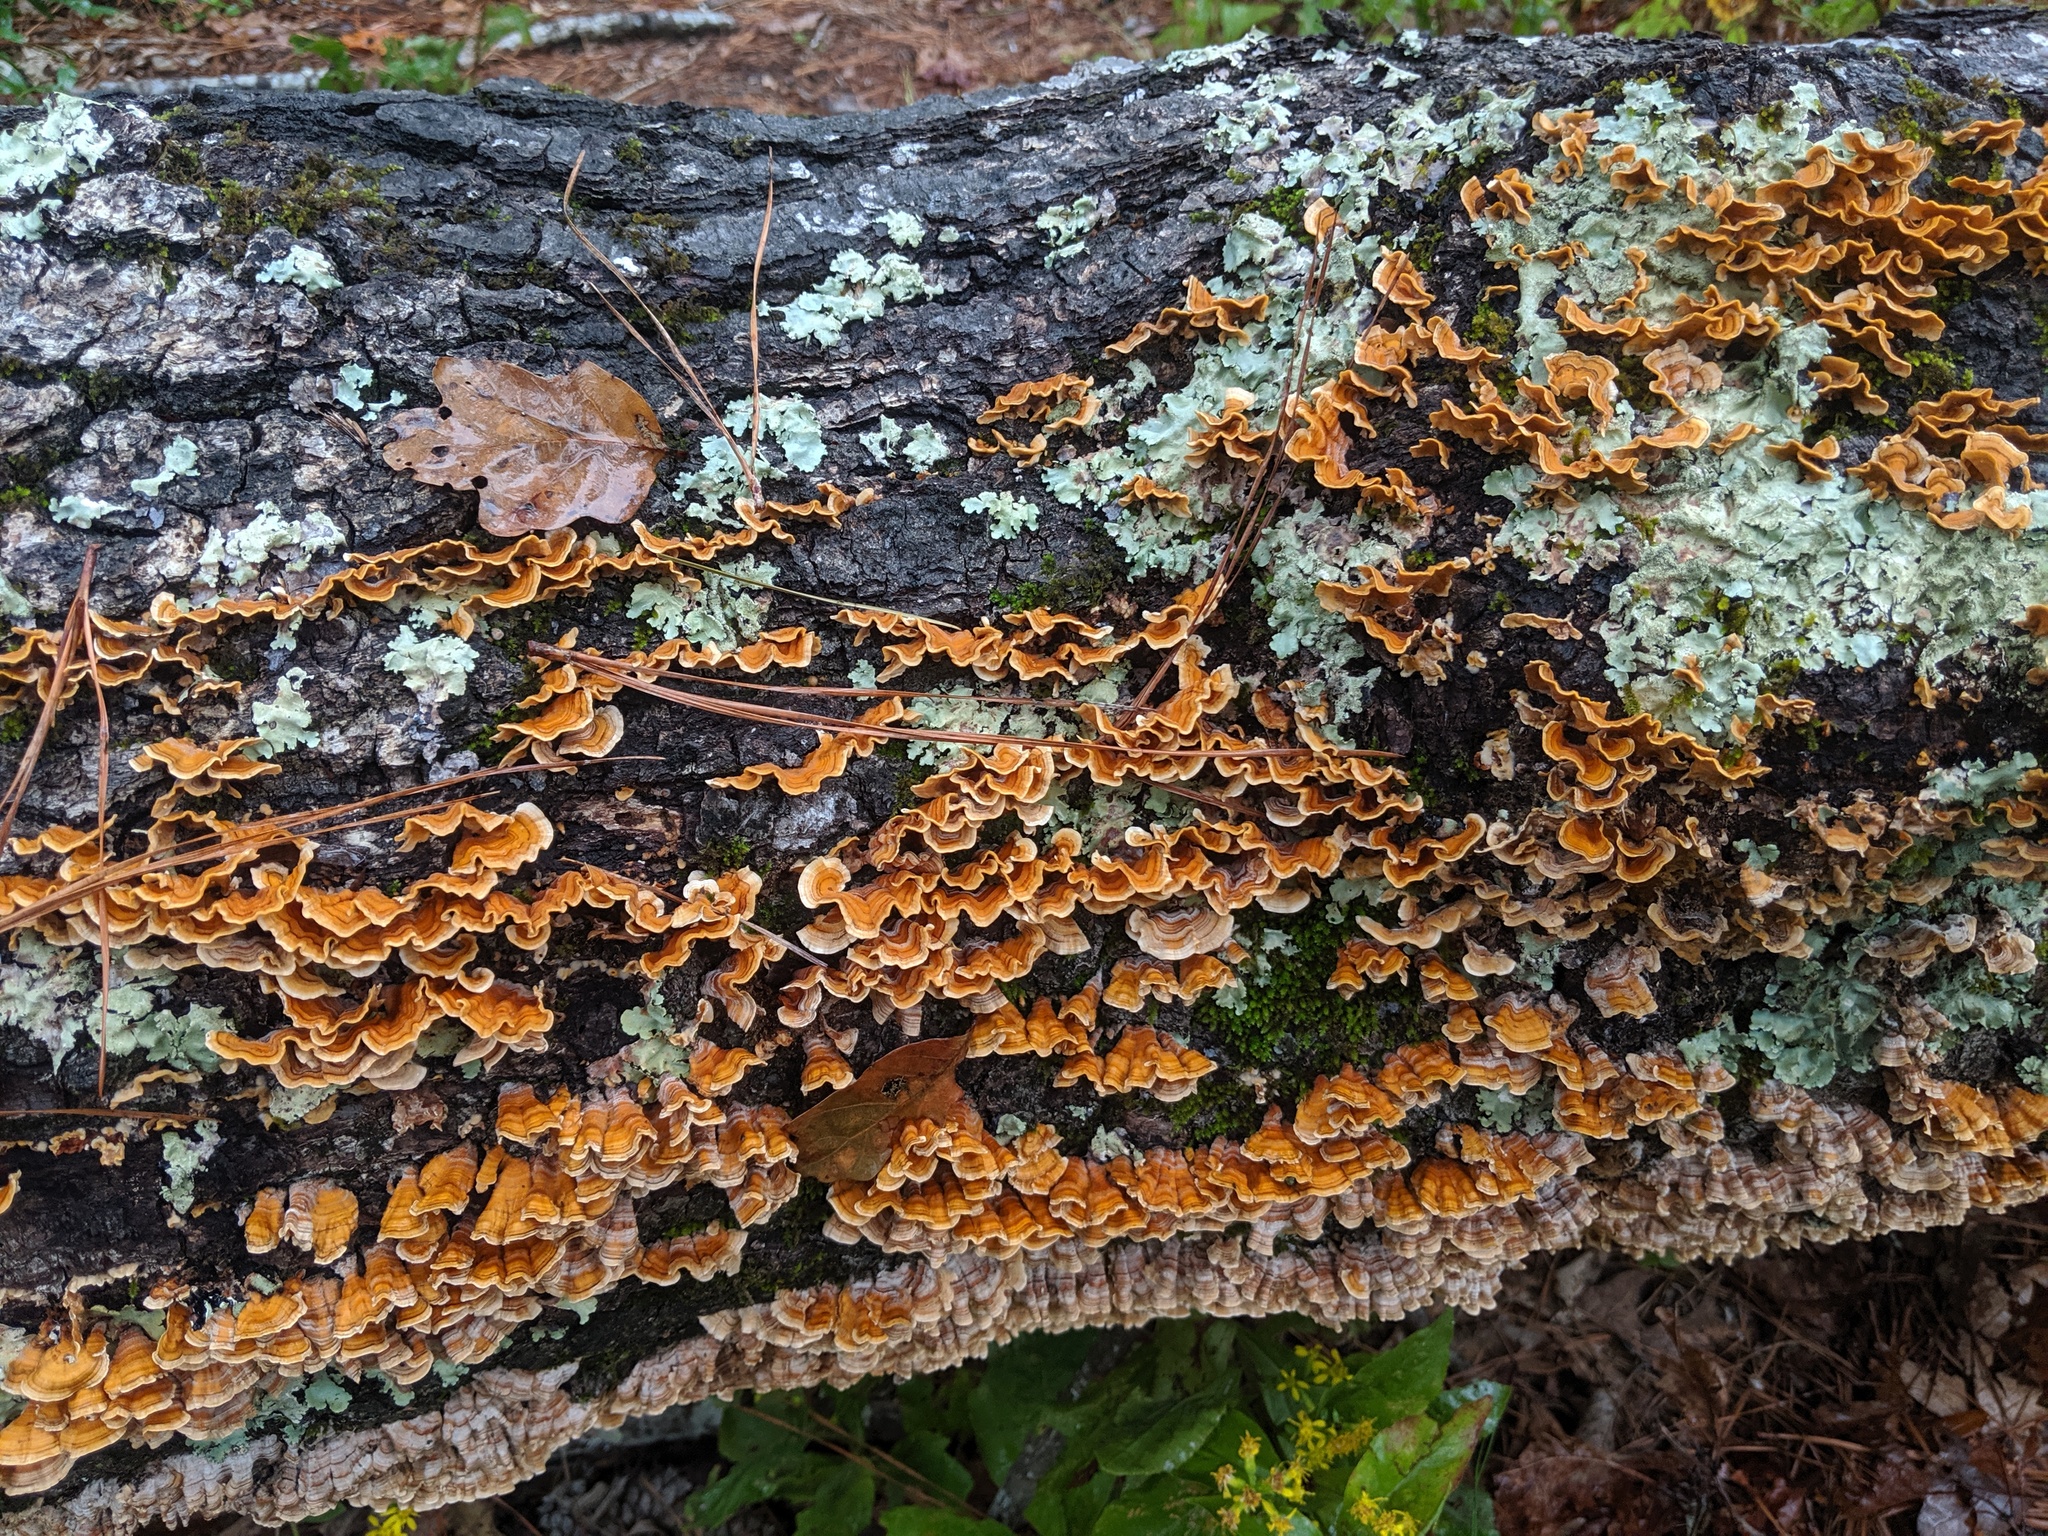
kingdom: Fungi
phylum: Basidiomycota
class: Agaricomycetes
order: Russulales
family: Stereaceae
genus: Stereum
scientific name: Stereum complicatum
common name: Crowded parchment
